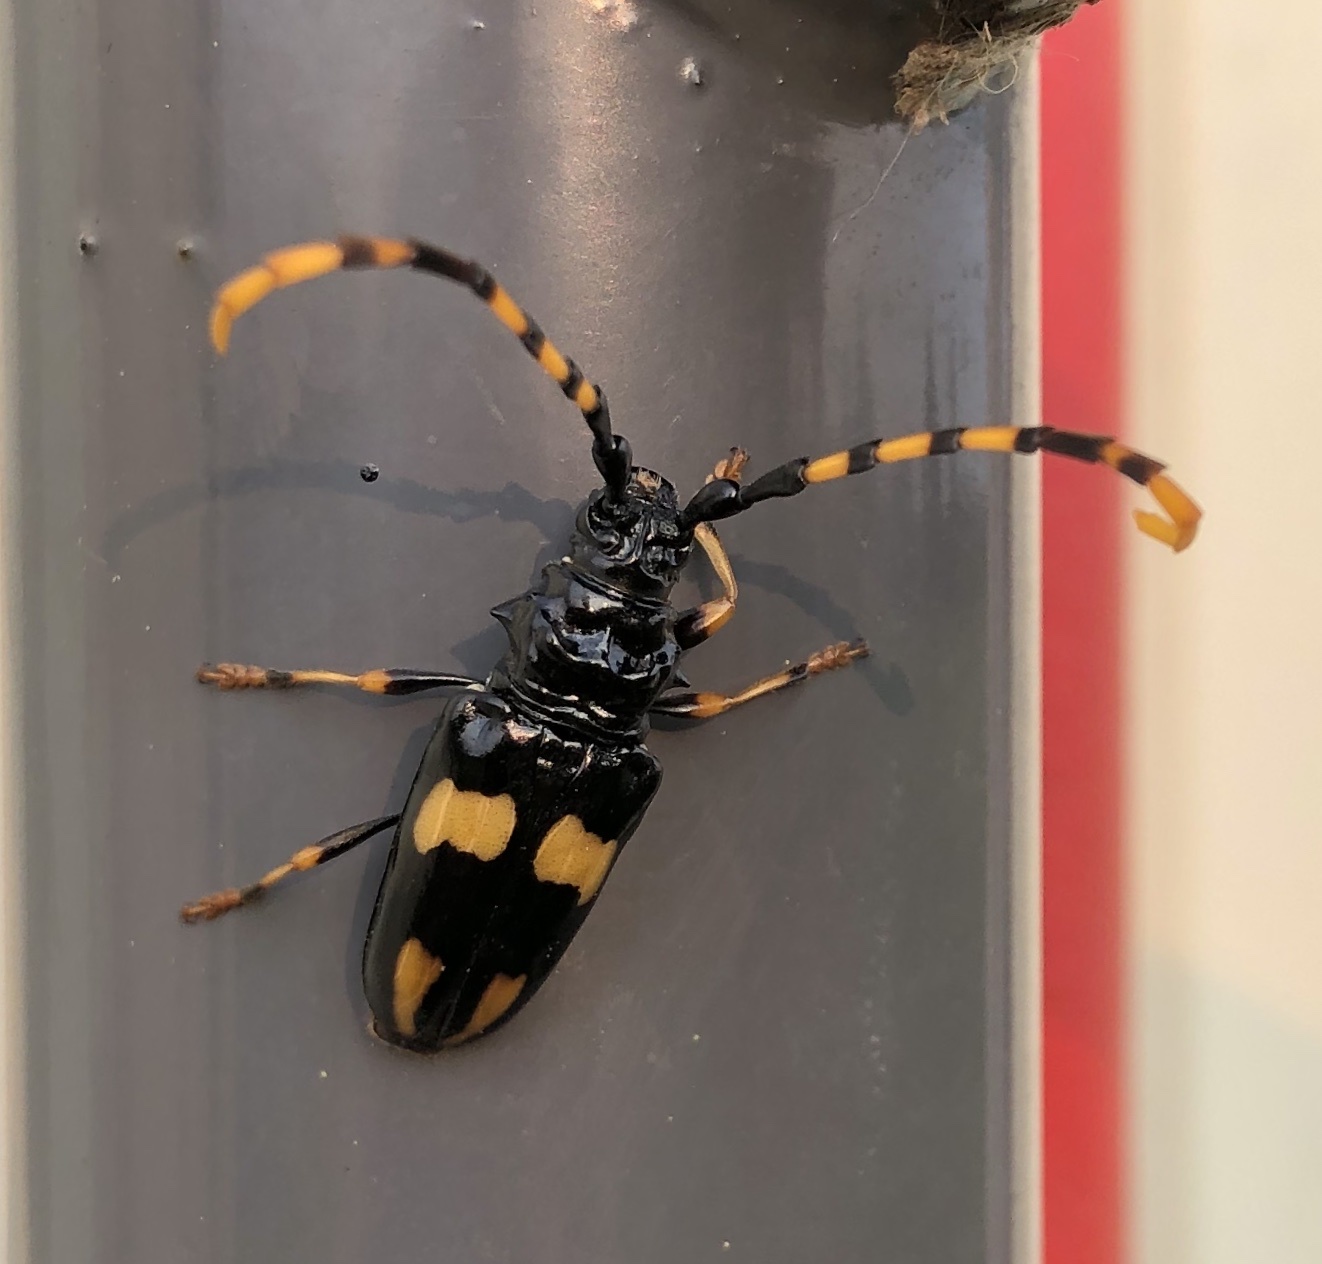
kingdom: Animalia
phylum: Arthropoda
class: Insecta
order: Coleoptera
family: Cerambycidae
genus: Trachyderes
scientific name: Trachyderes mandibularis
